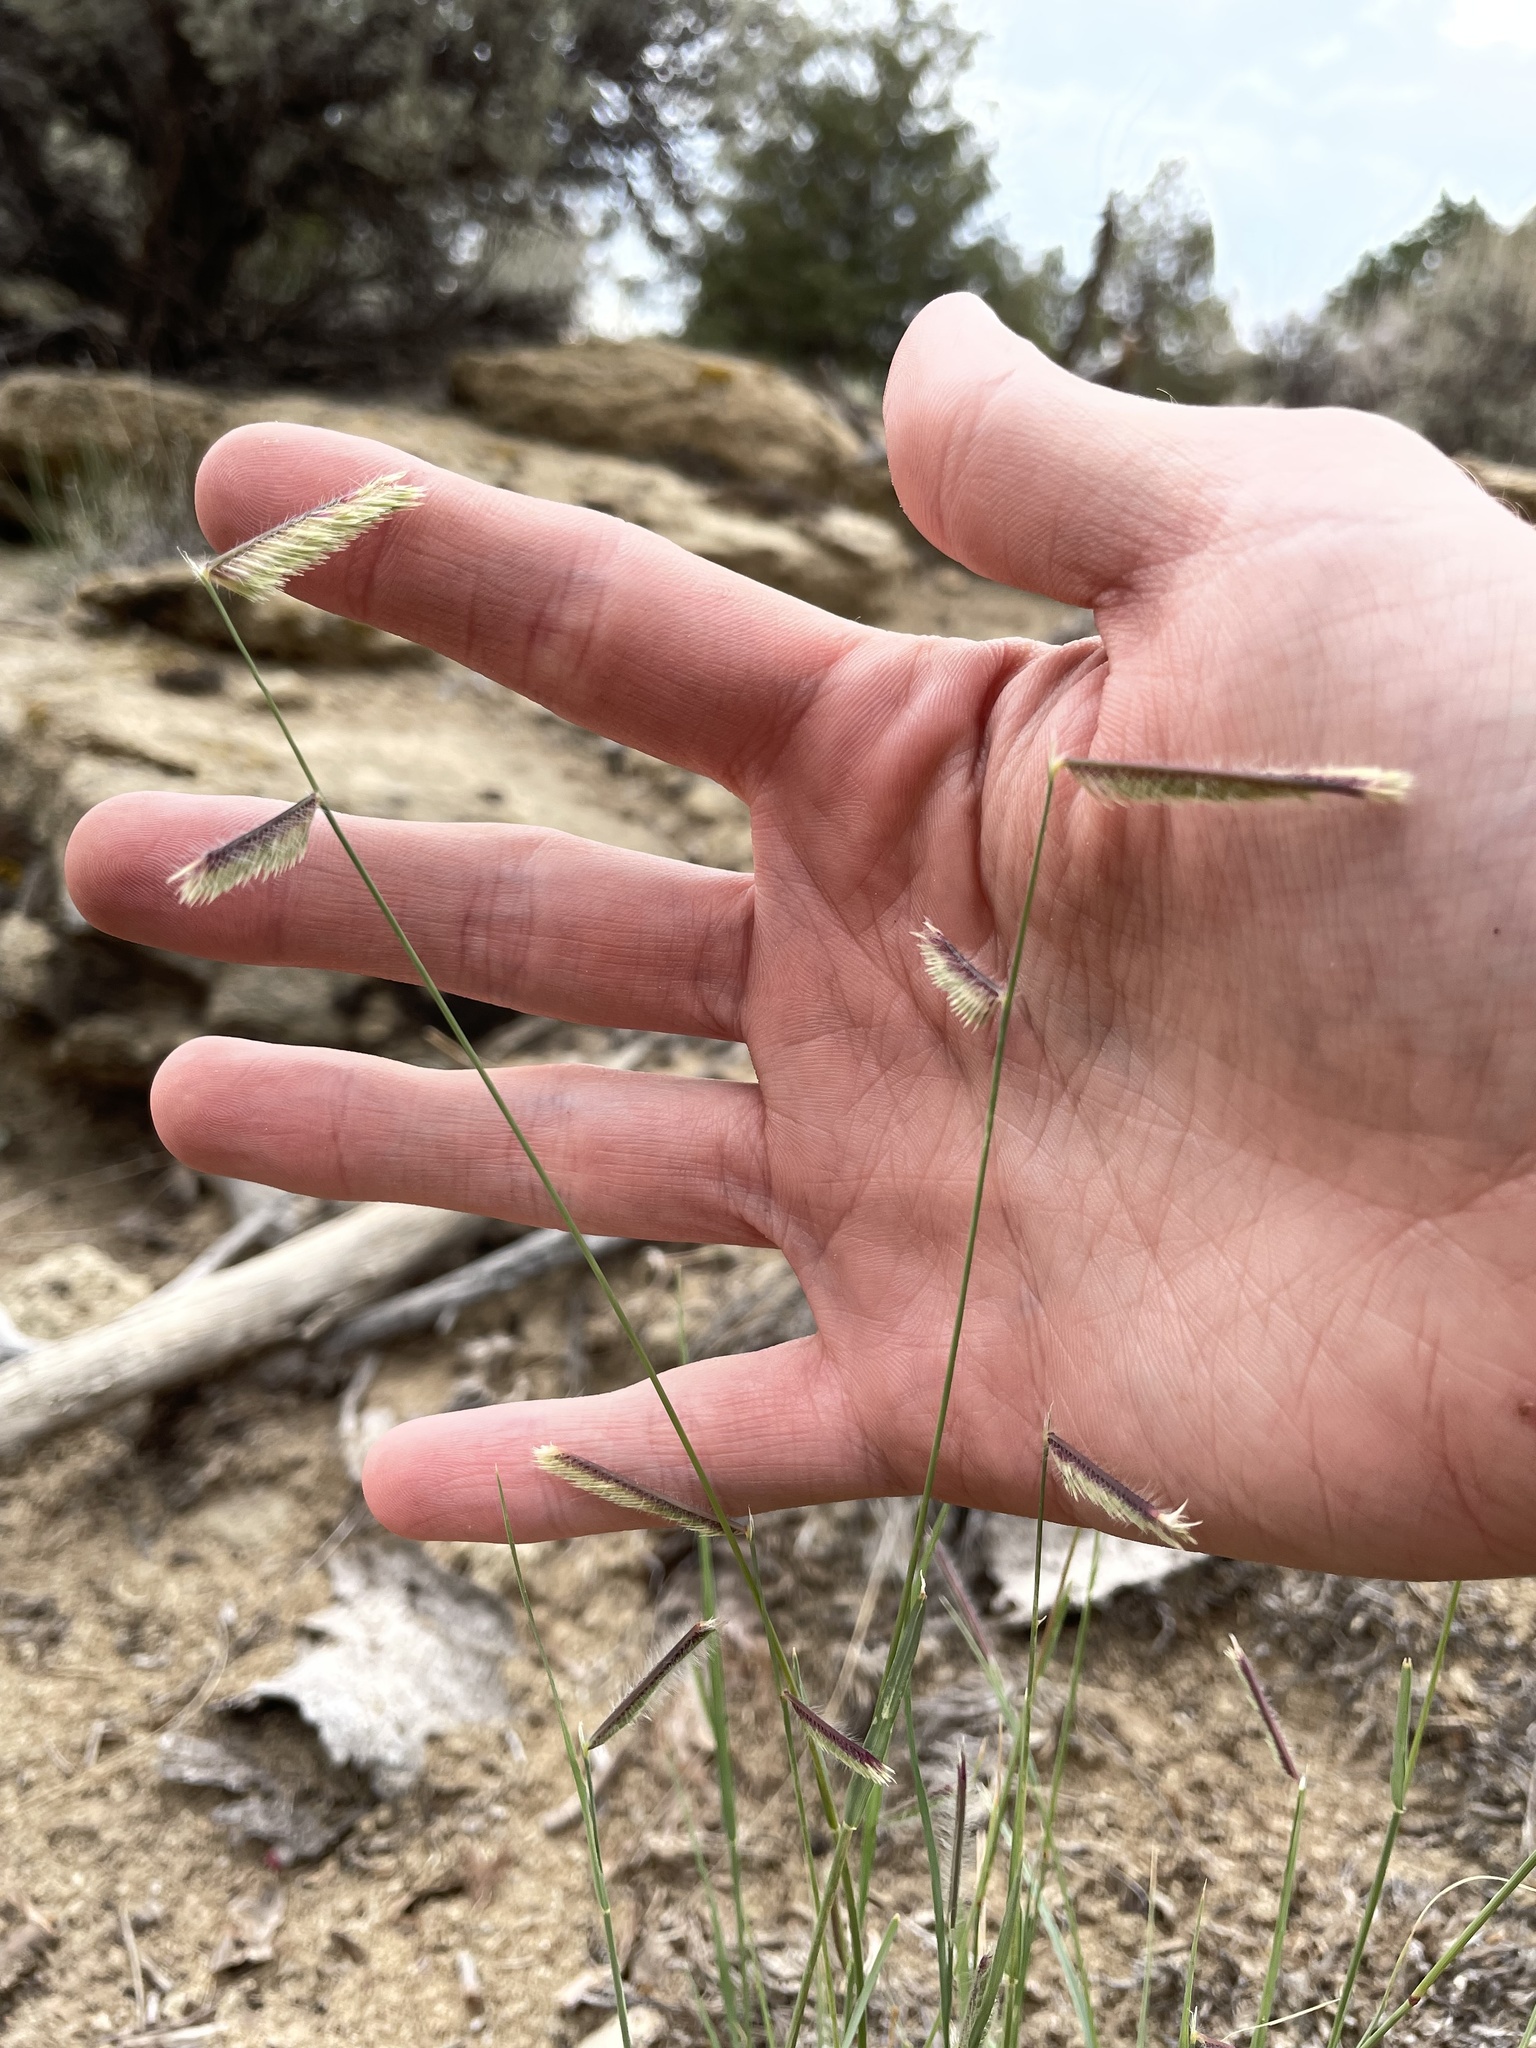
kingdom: Plantae
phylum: Tracheophyta
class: Liliopsida
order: Poales
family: Poaceae
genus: Bouteloua
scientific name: Bouteloua gracilis
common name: Blue grama
